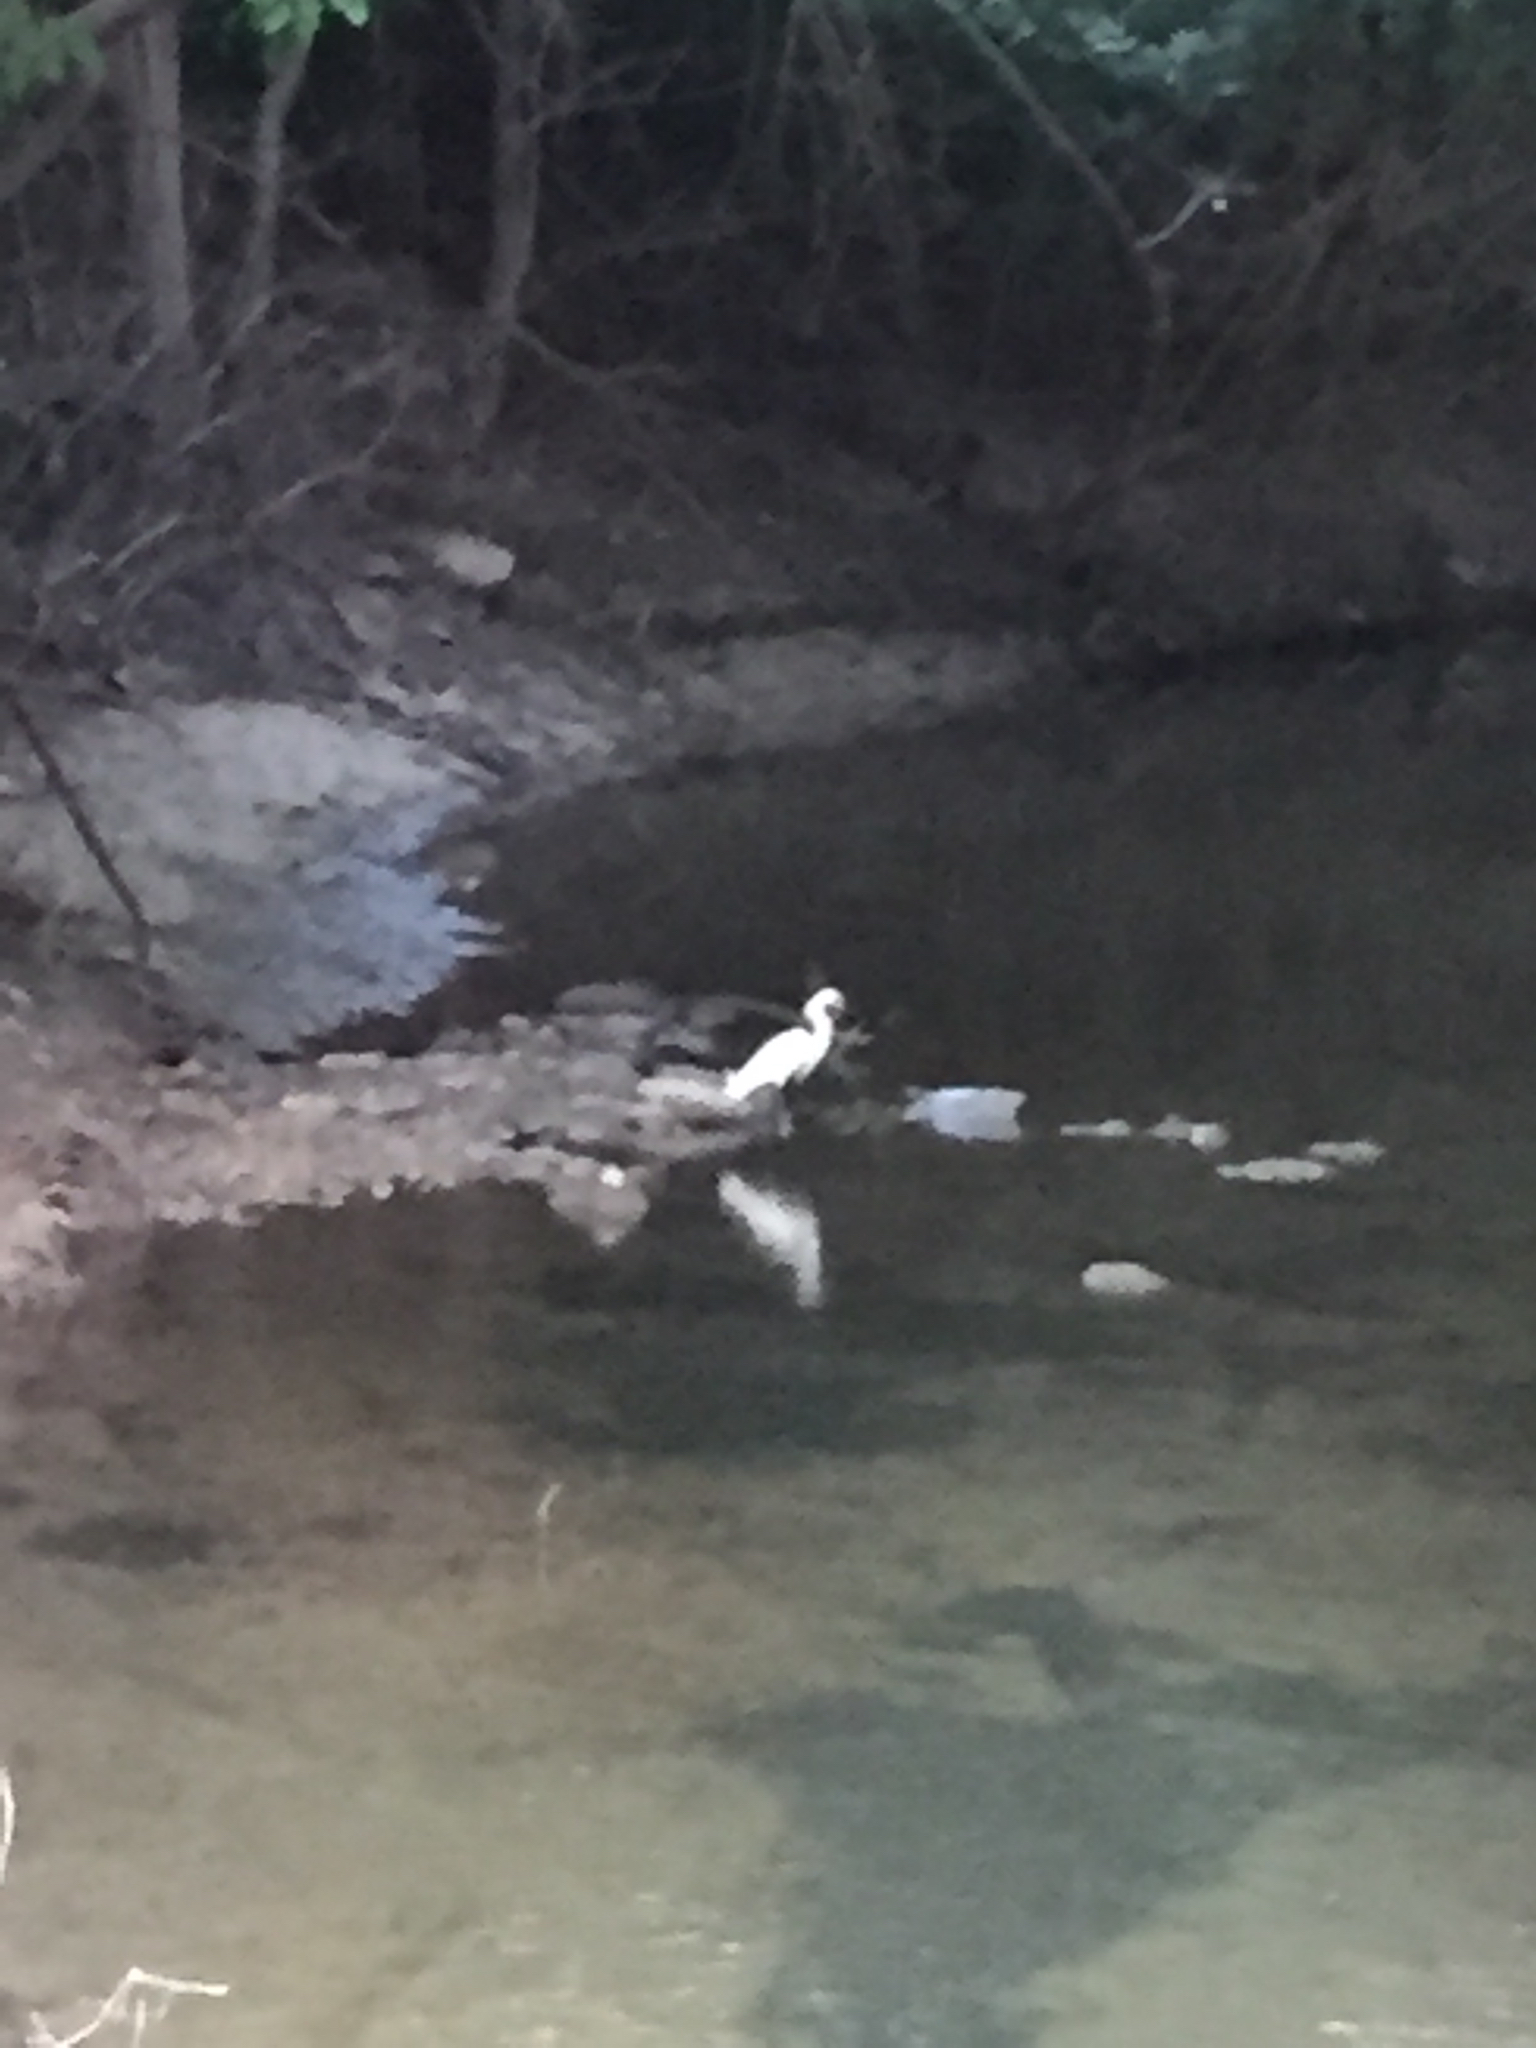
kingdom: Animalia
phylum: Chordata
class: Aves
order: Pelecaniformes
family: Ardeidae
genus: Egretta
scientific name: Egretta thula
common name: Snowy egret
